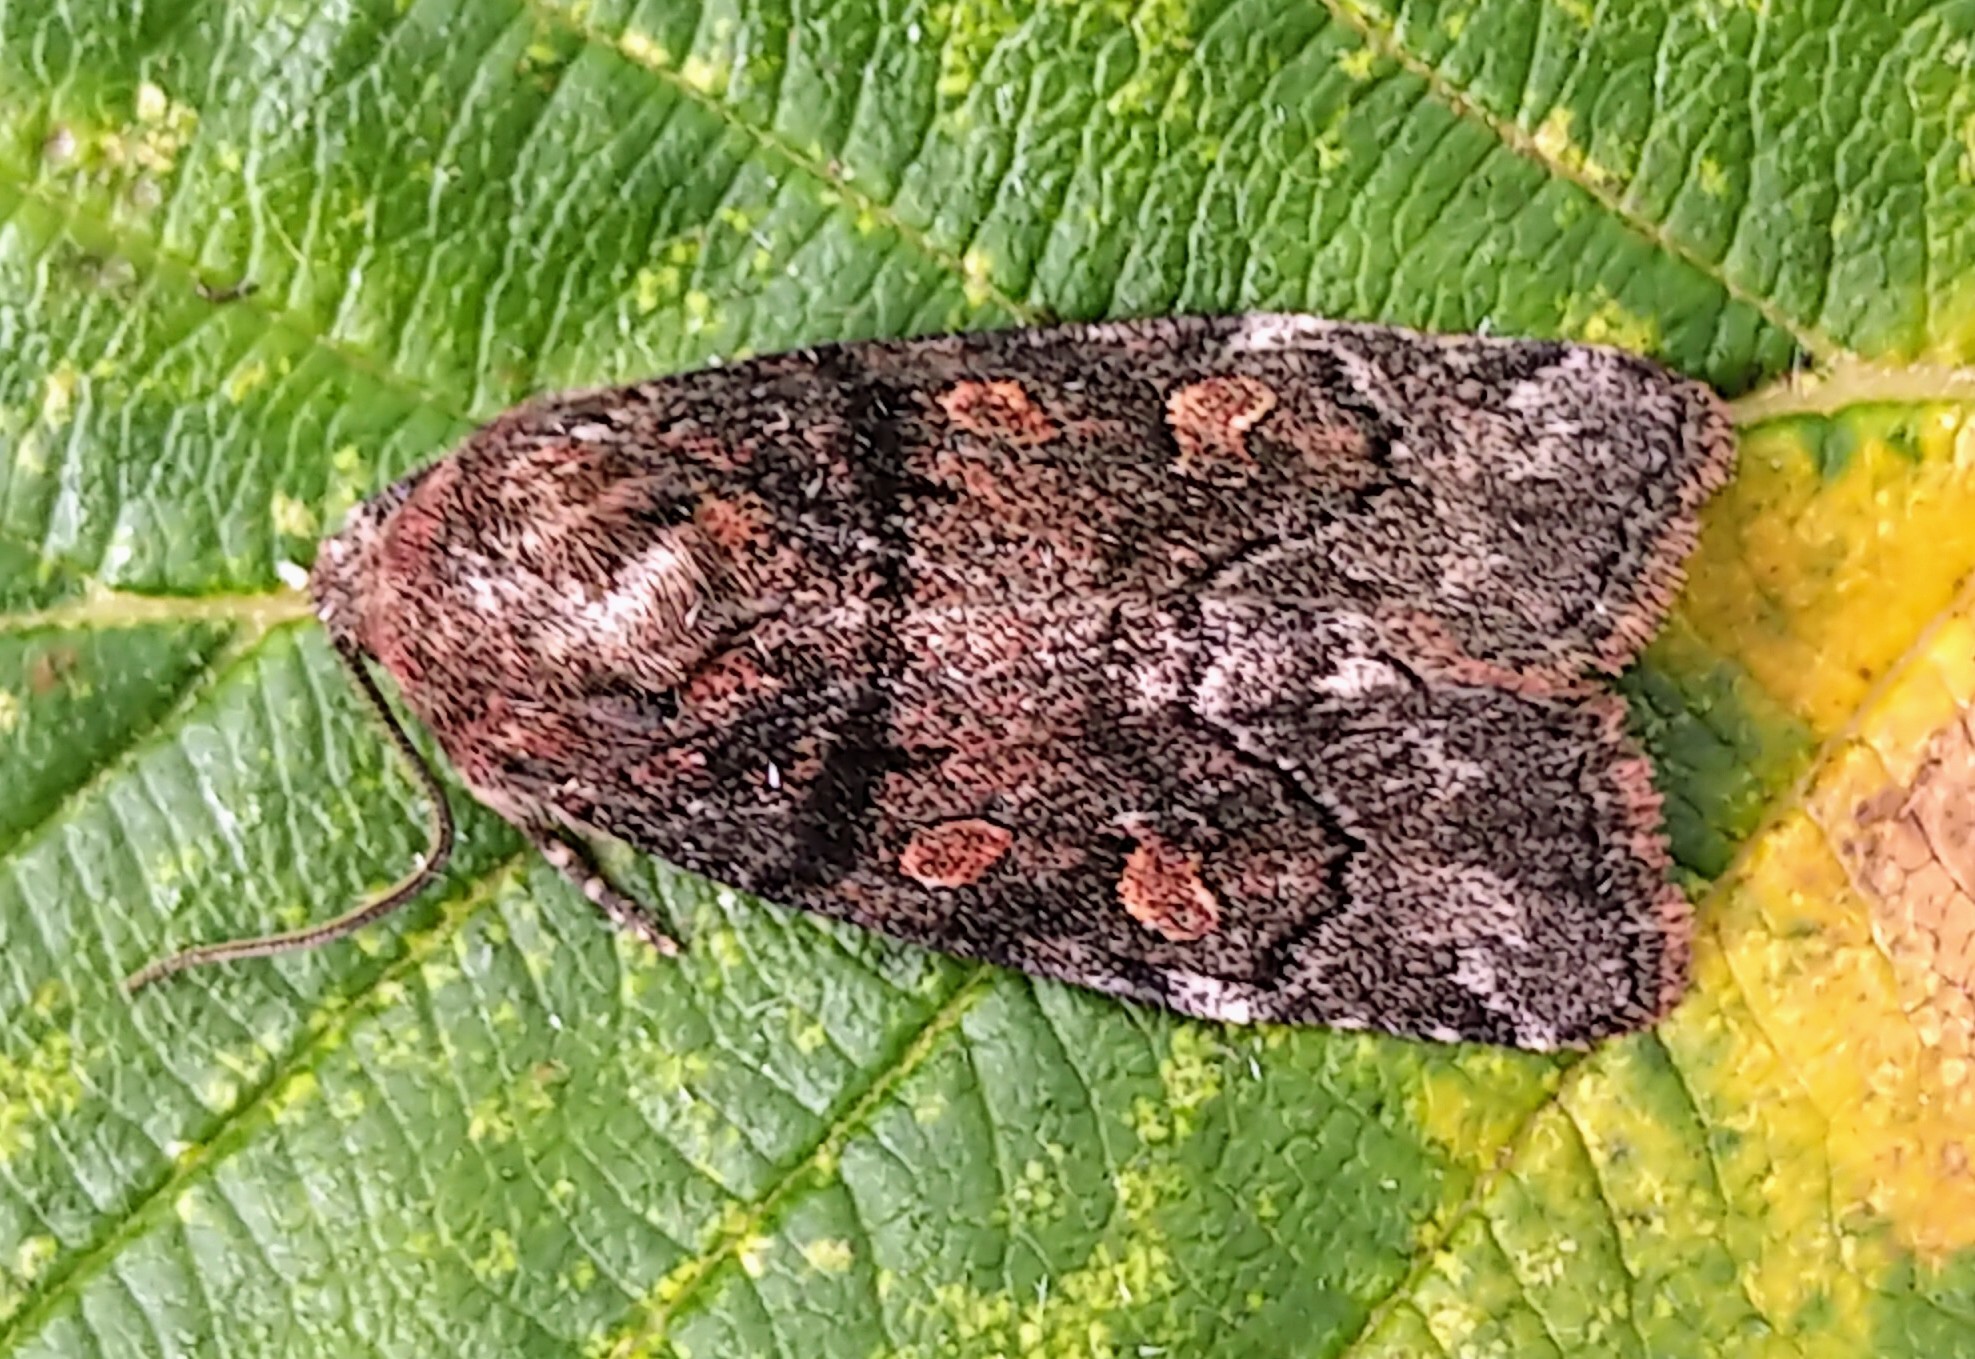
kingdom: Animalia
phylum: Arthropoda
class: Insecta
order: Lepidoptera
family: Noctuidae
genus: Cosmia
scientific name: Cosmia praeacuta
